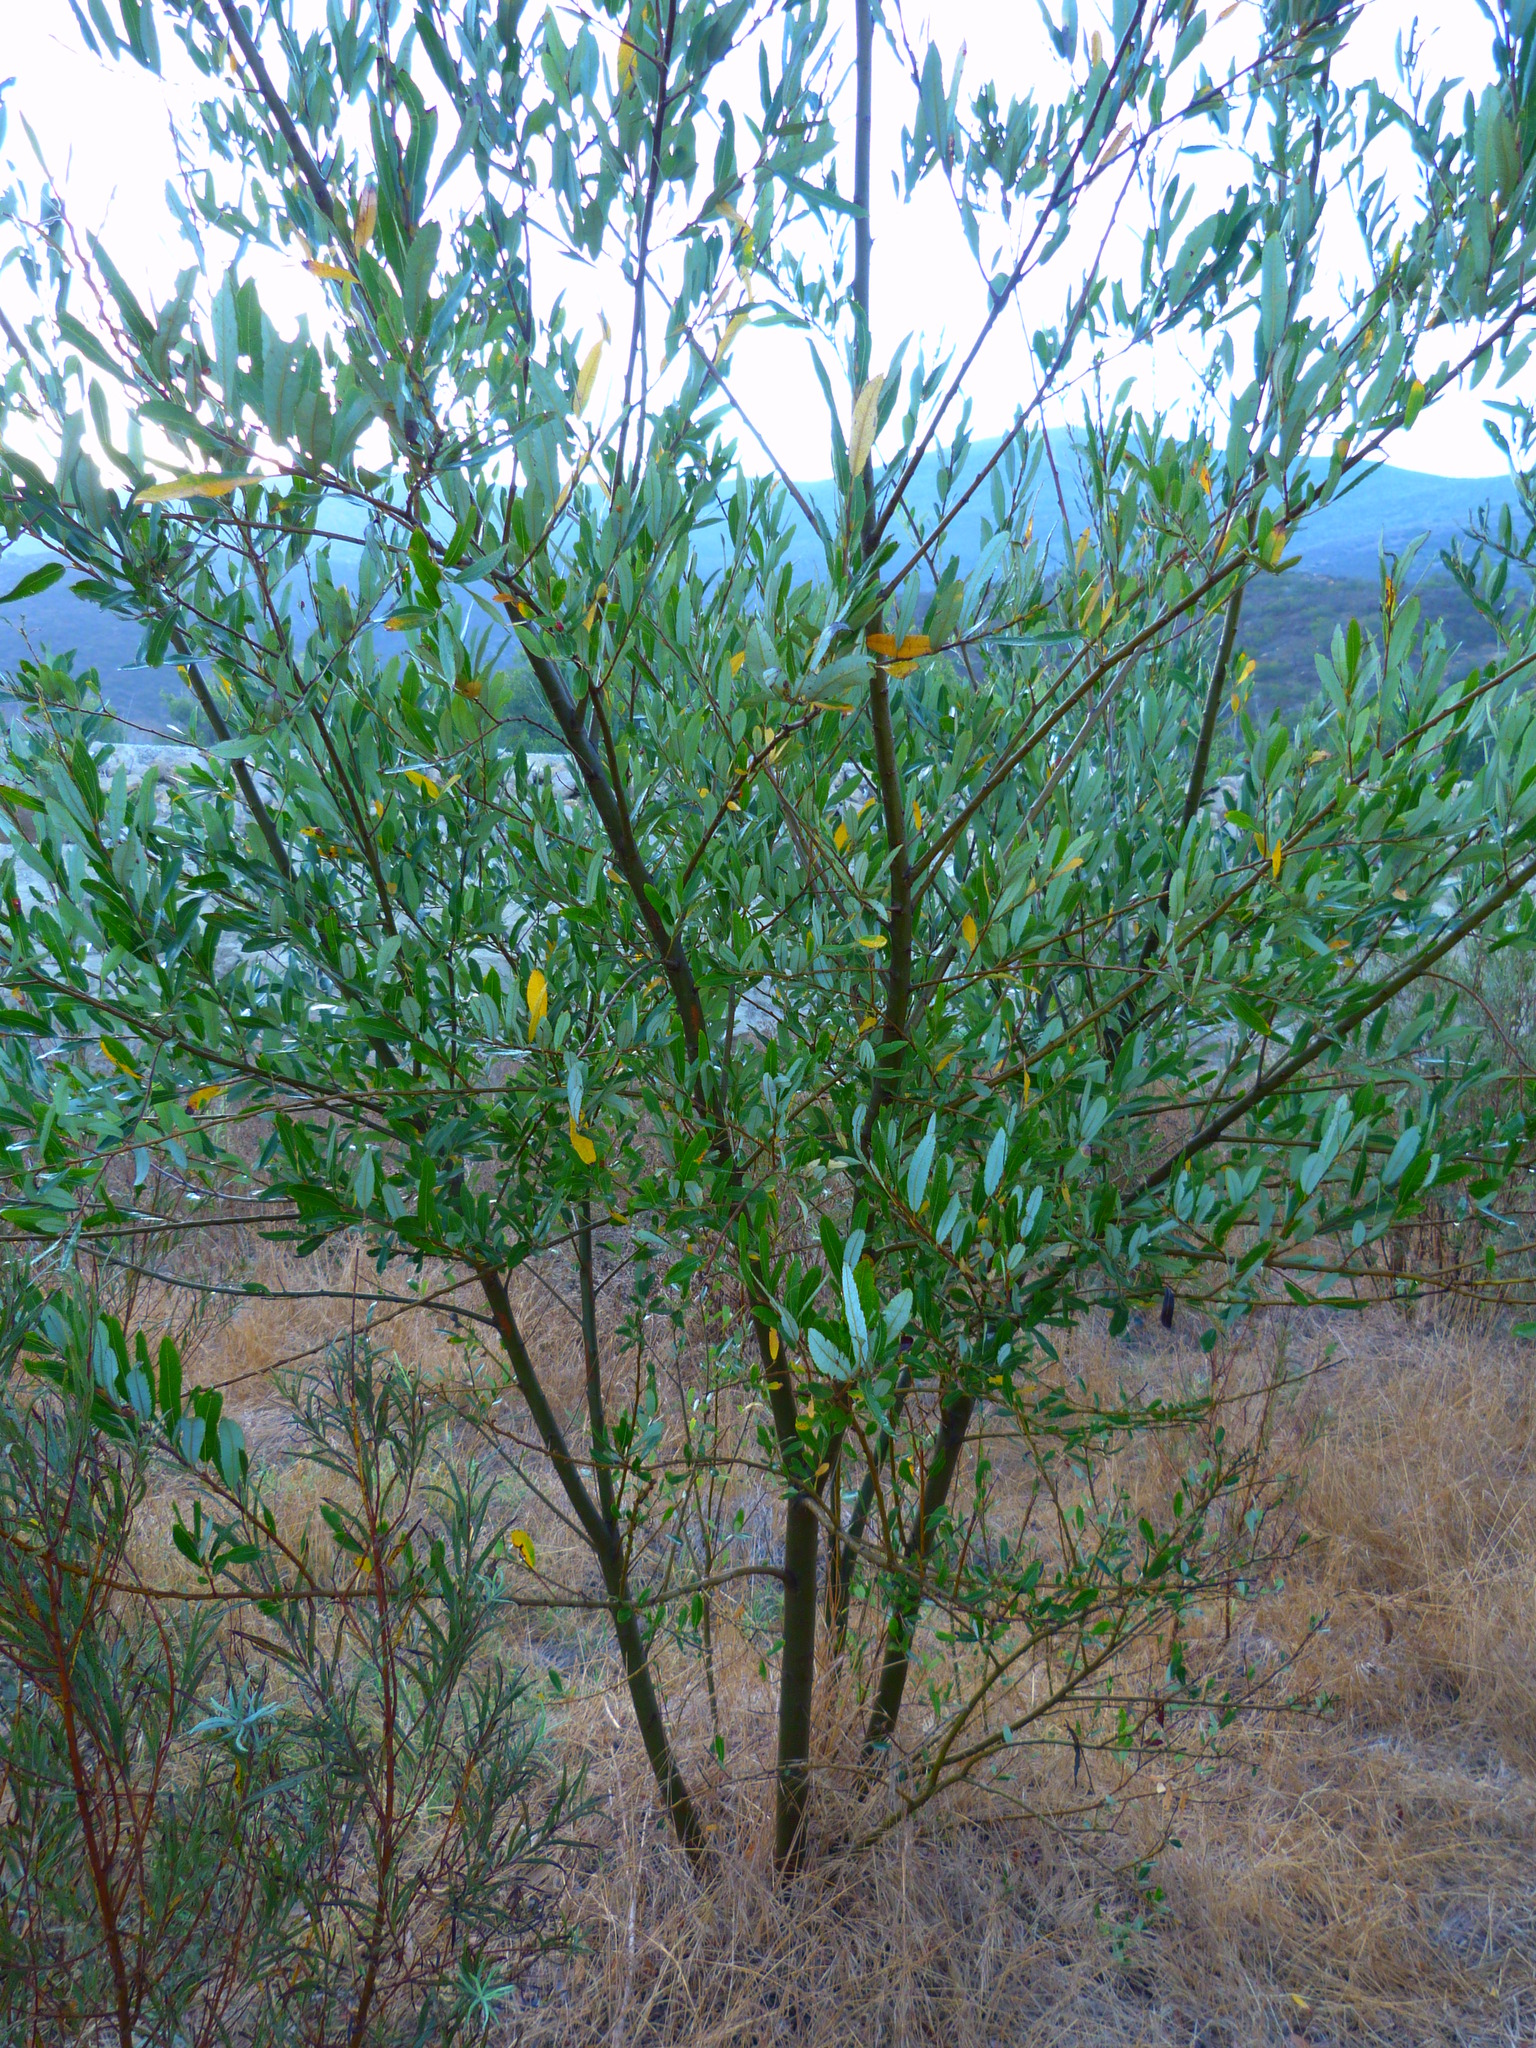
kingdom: Plantae
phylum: Tracheophyta
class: Magnoliopsida
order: Malpighiales
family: Salicaceae
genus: Salix
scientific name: Salix lasiolepis
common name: Arroyo willow
